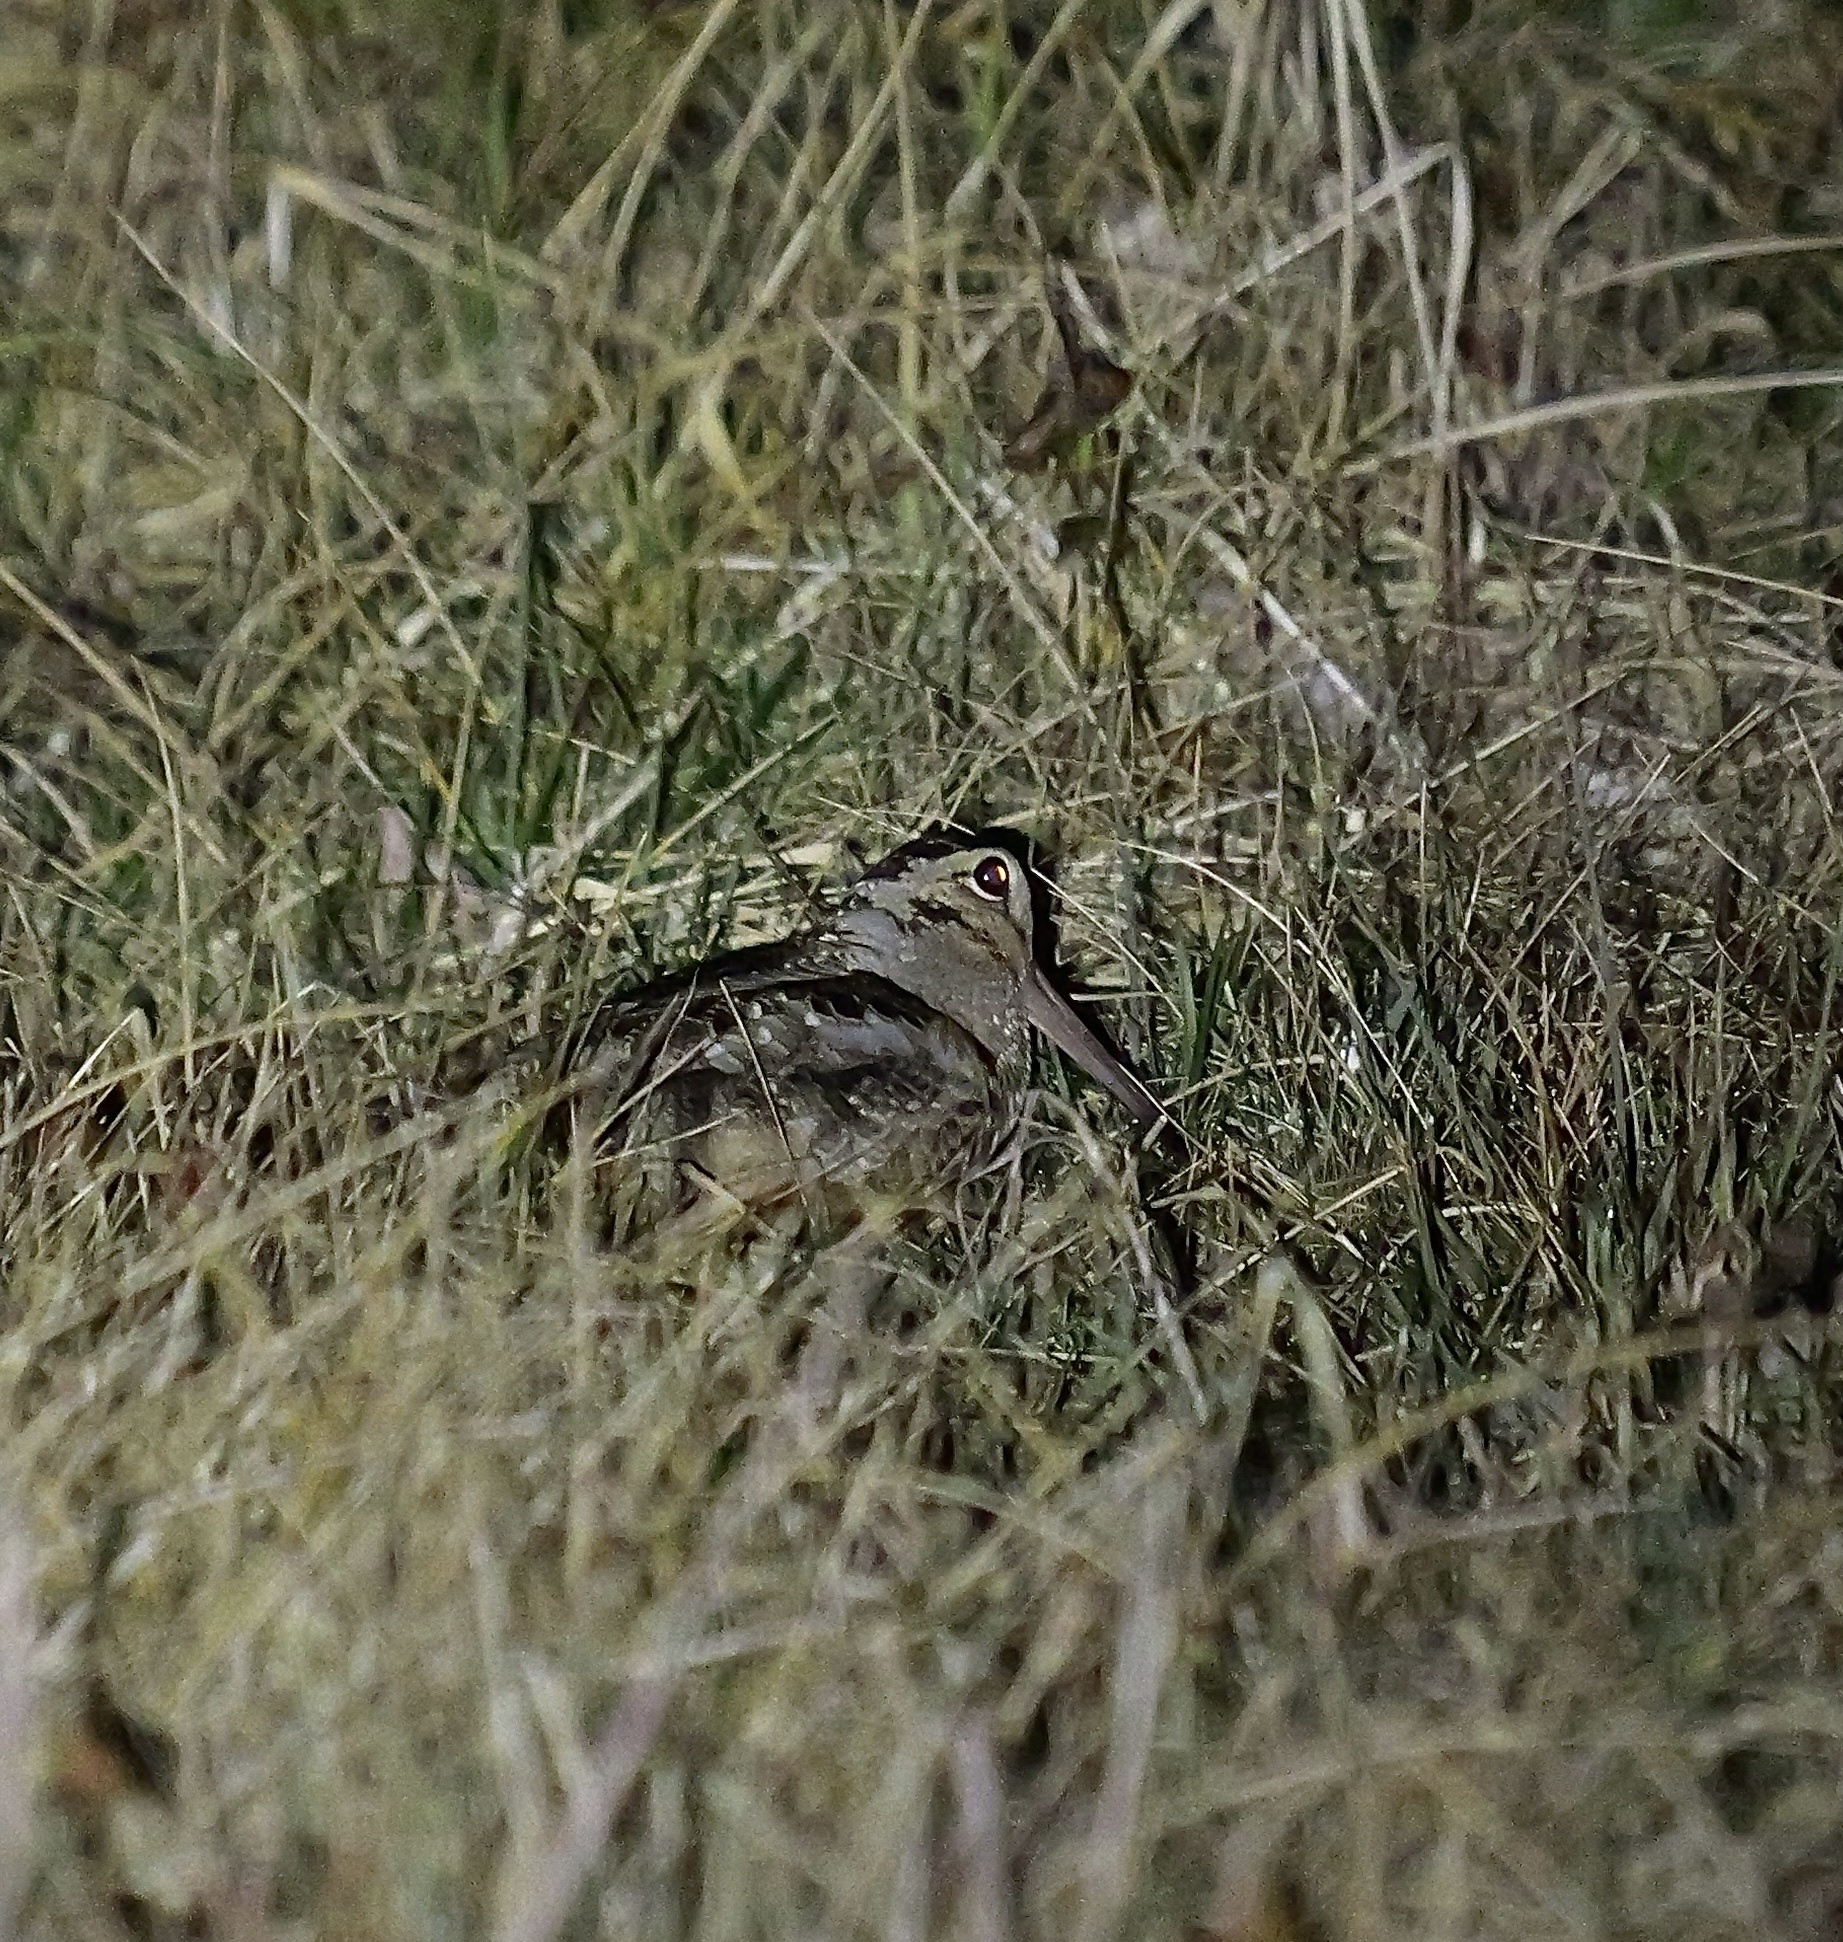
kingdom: Animalia
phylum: Chordata
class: Aves
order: Charadriiformes
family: Scolopacidae
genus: Scolopax
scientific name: Scolopax minor
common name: American woodcock
